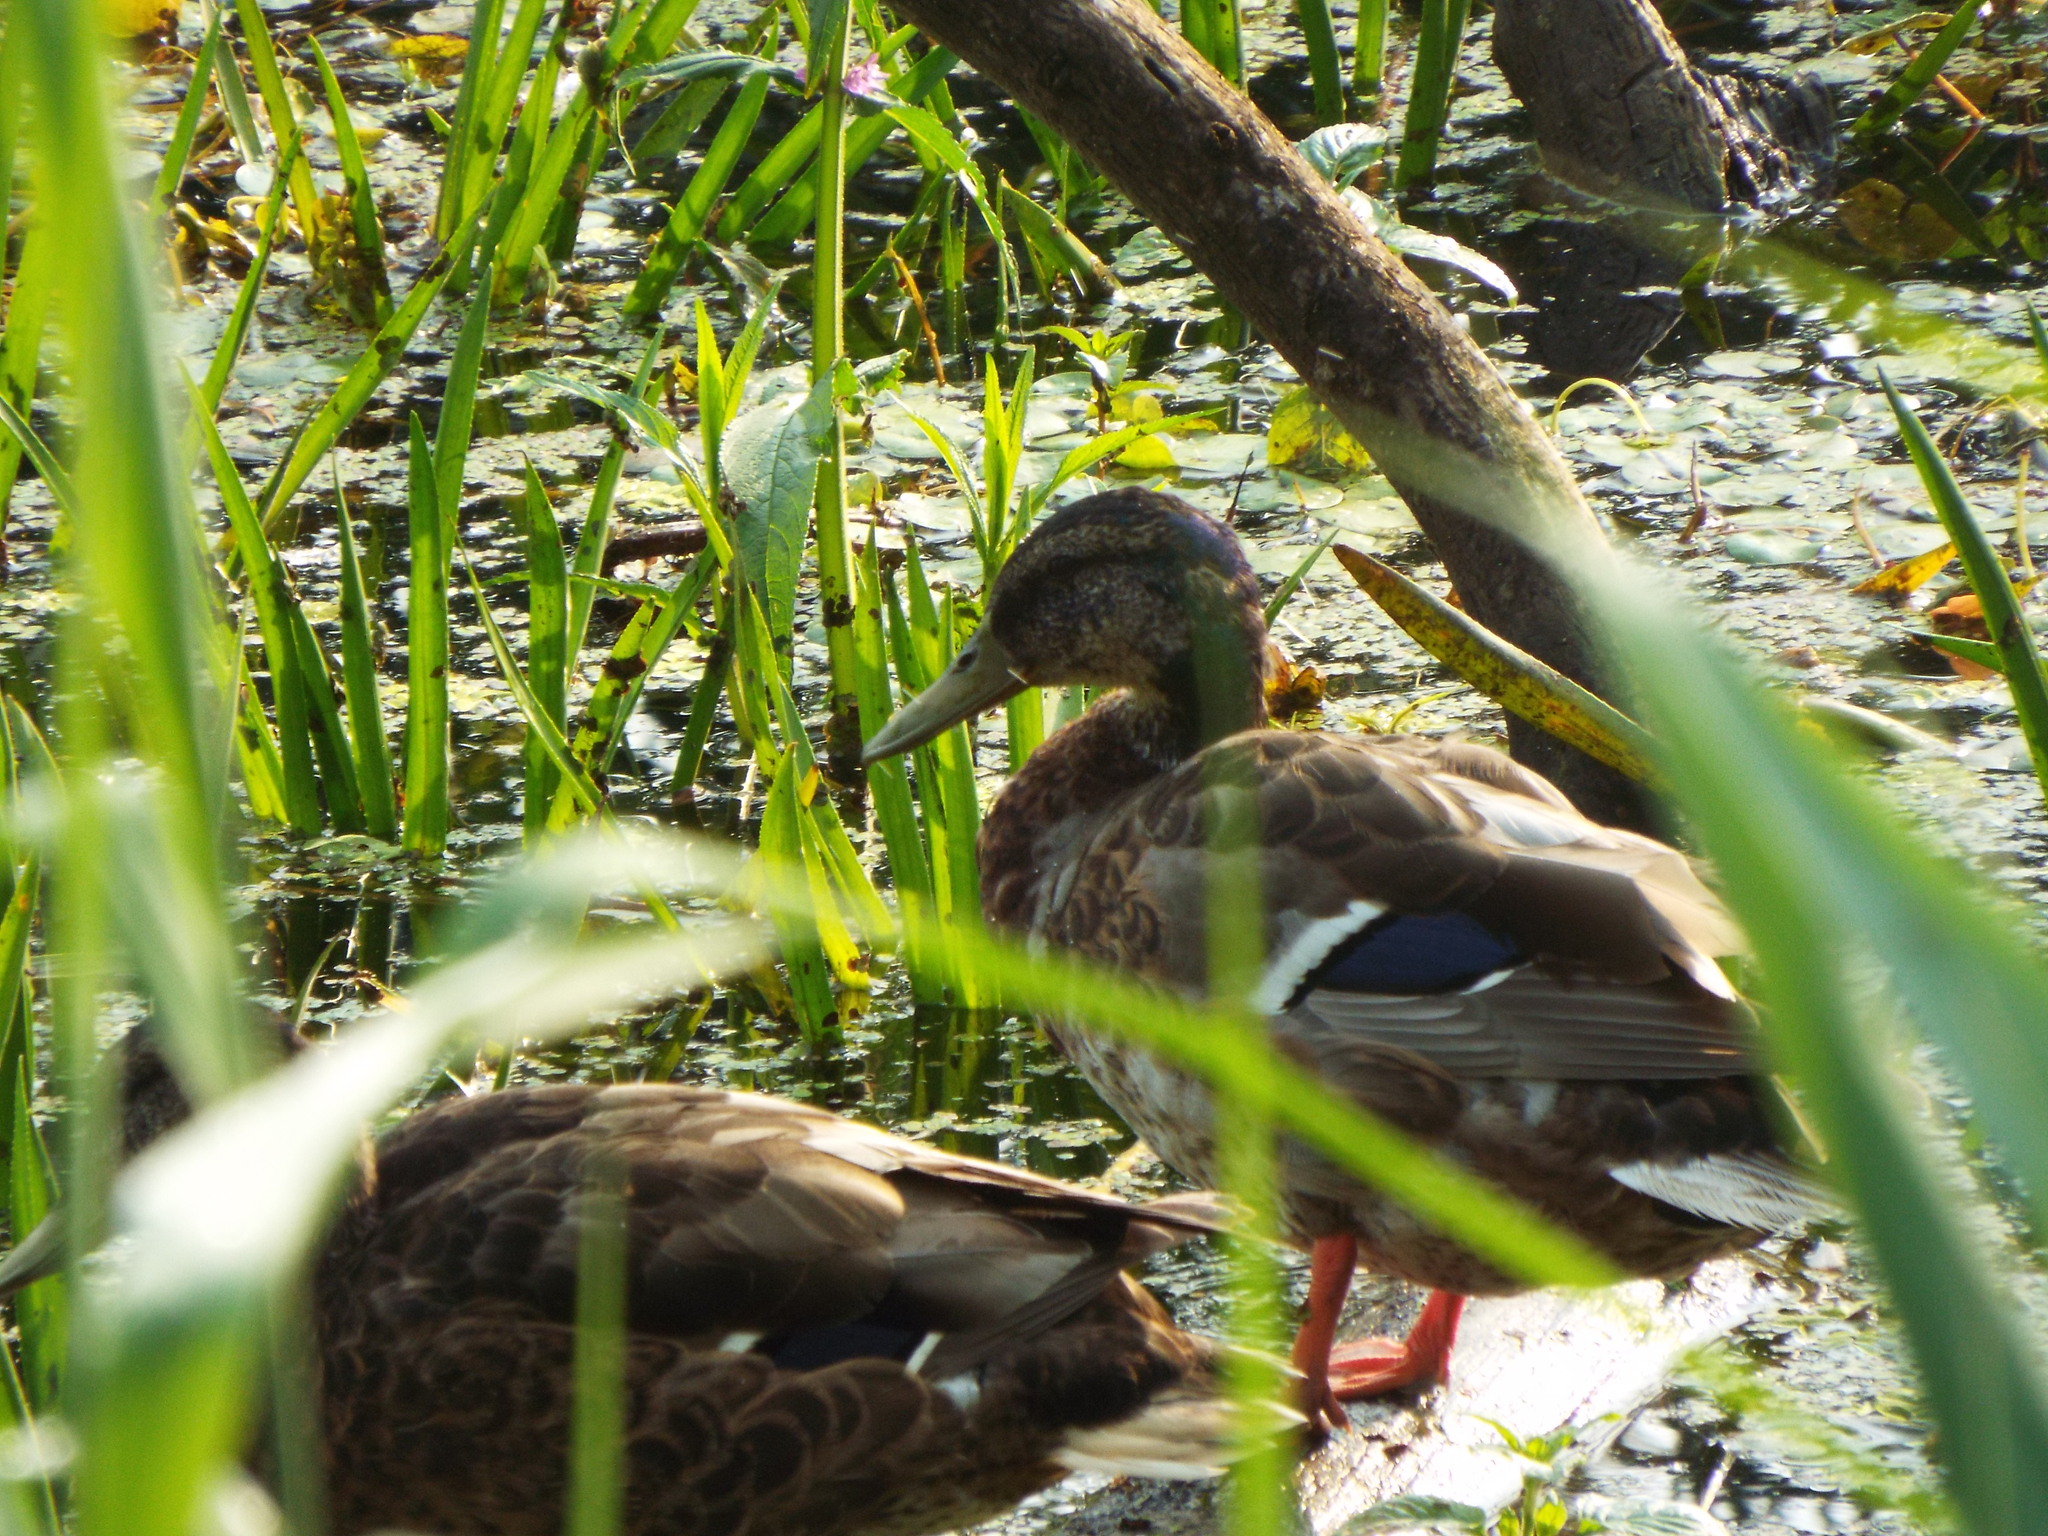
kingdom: Animalia
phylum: Chordata
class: Aves
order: Anseriformes
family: Anatidae
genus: Anas
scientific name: Anas platyrhynchos
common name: Mallard
